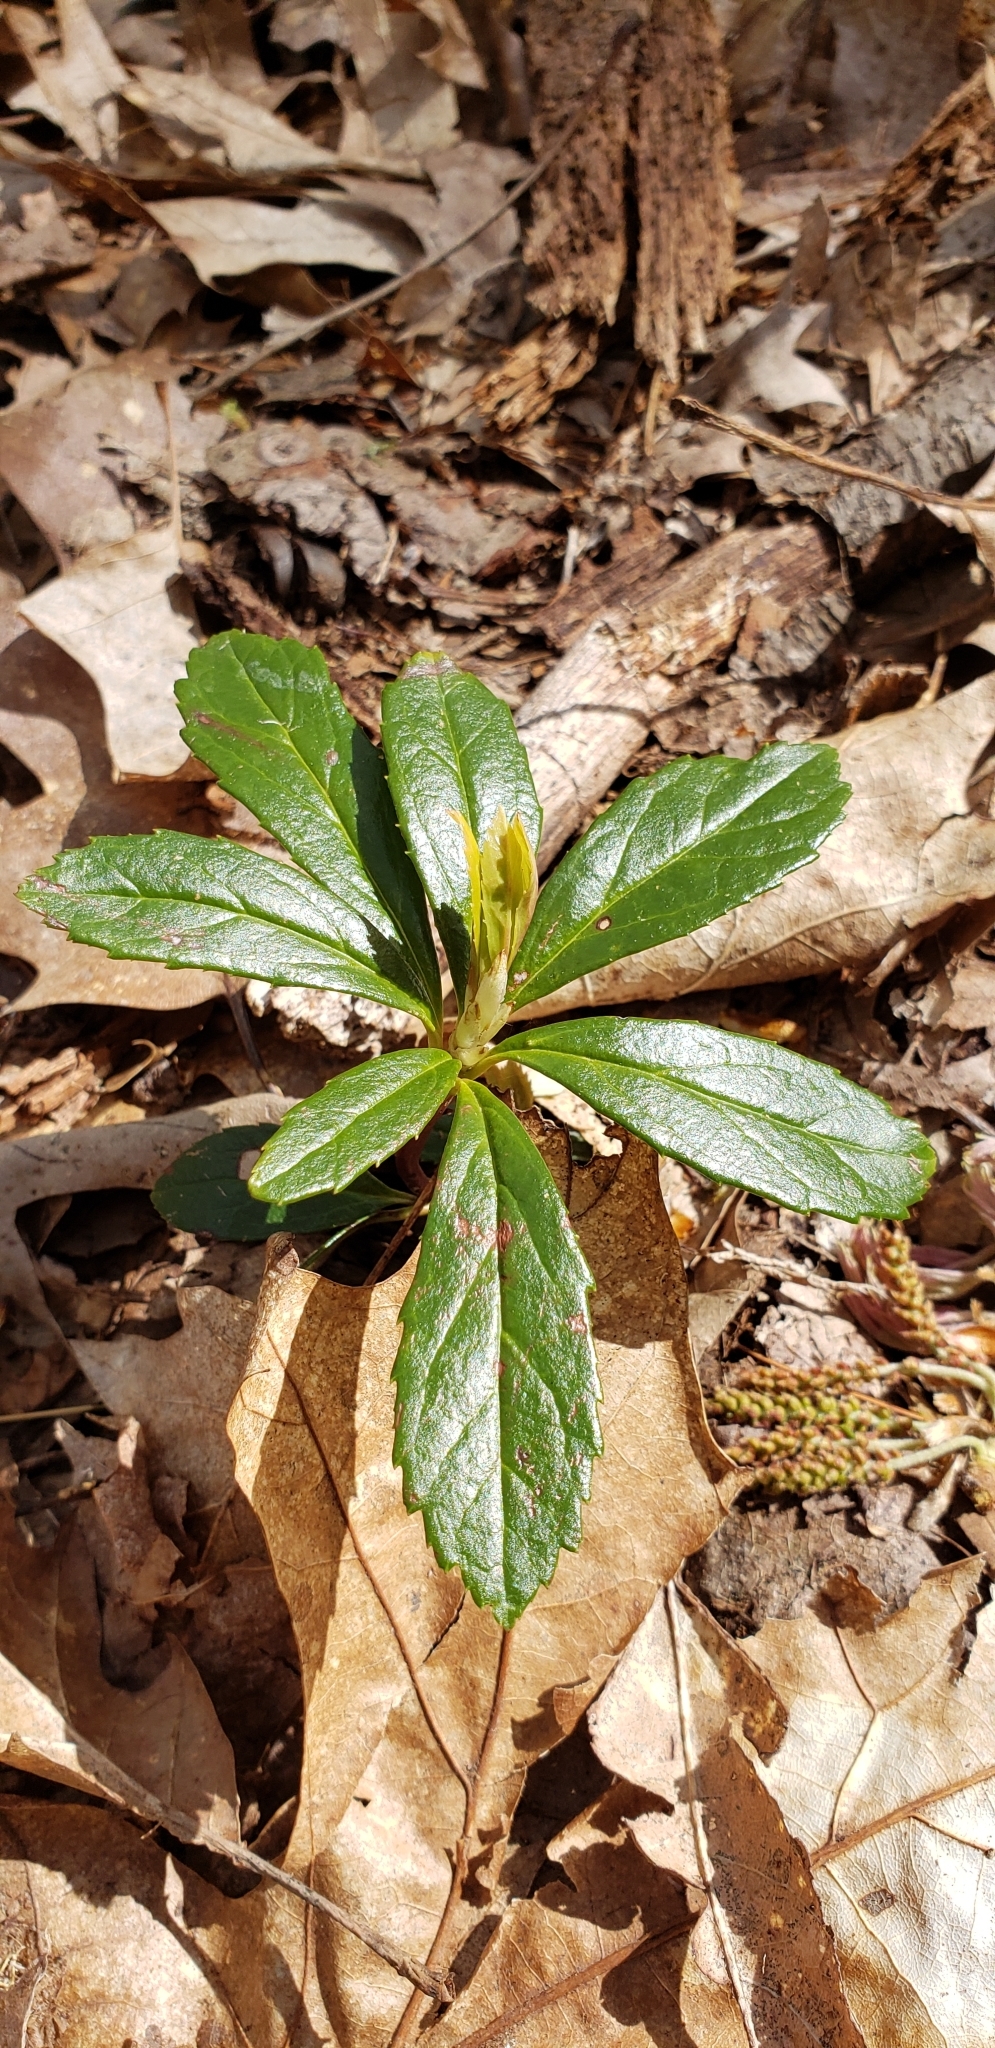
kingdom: Plantae
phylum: Tracheophyta
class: Magnoliopsida
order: Ericales
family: Ericaceae
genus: Chimaphila
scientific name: Chimaphila umbellata
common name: Pipsissewa
